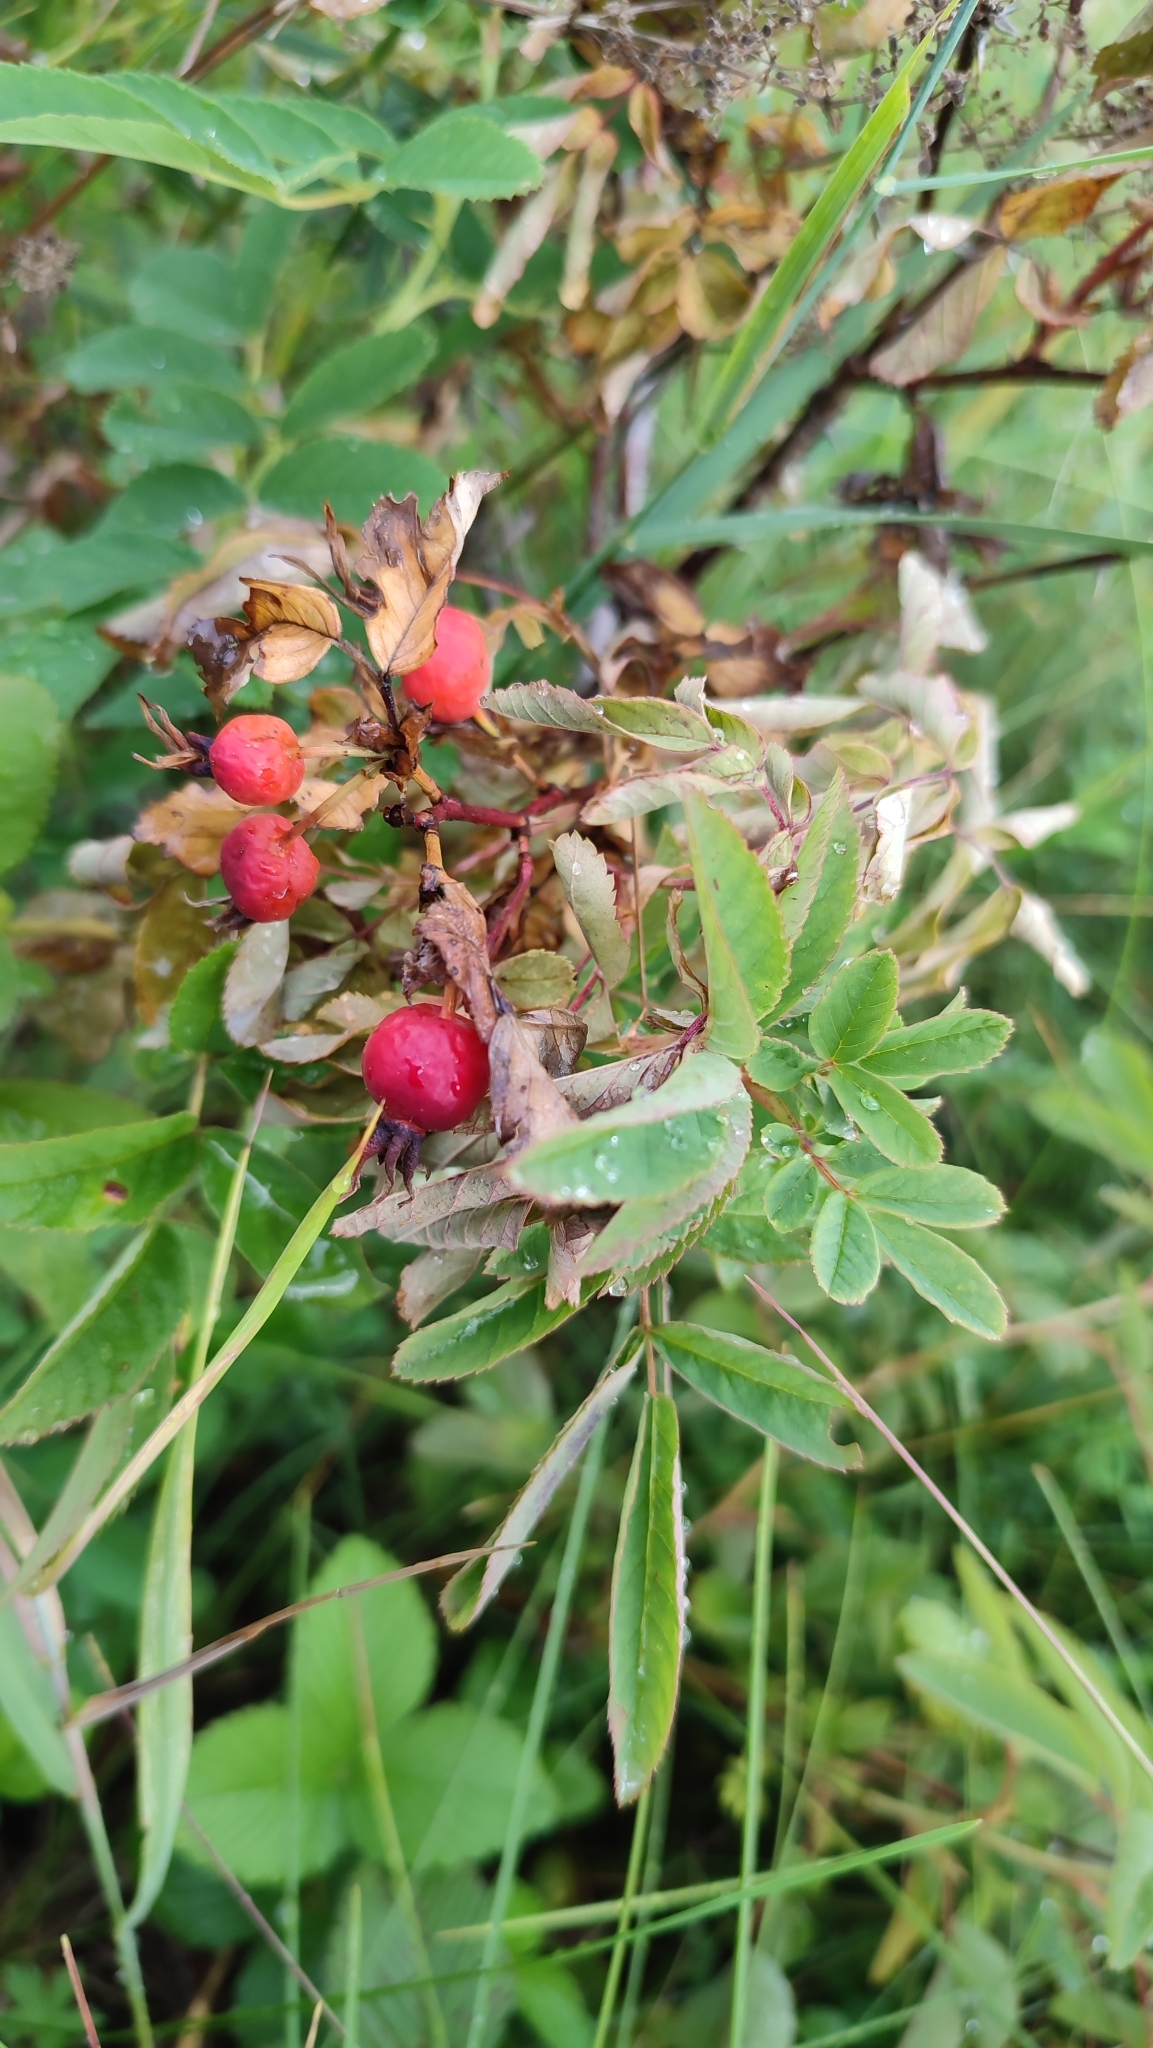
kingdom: Plantae
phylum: Tracheophyta
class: Magnoliopsida
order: Rosales
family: Rosaceae
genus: Rosa
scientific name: Rosa majalis
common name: Cinnamon rose
